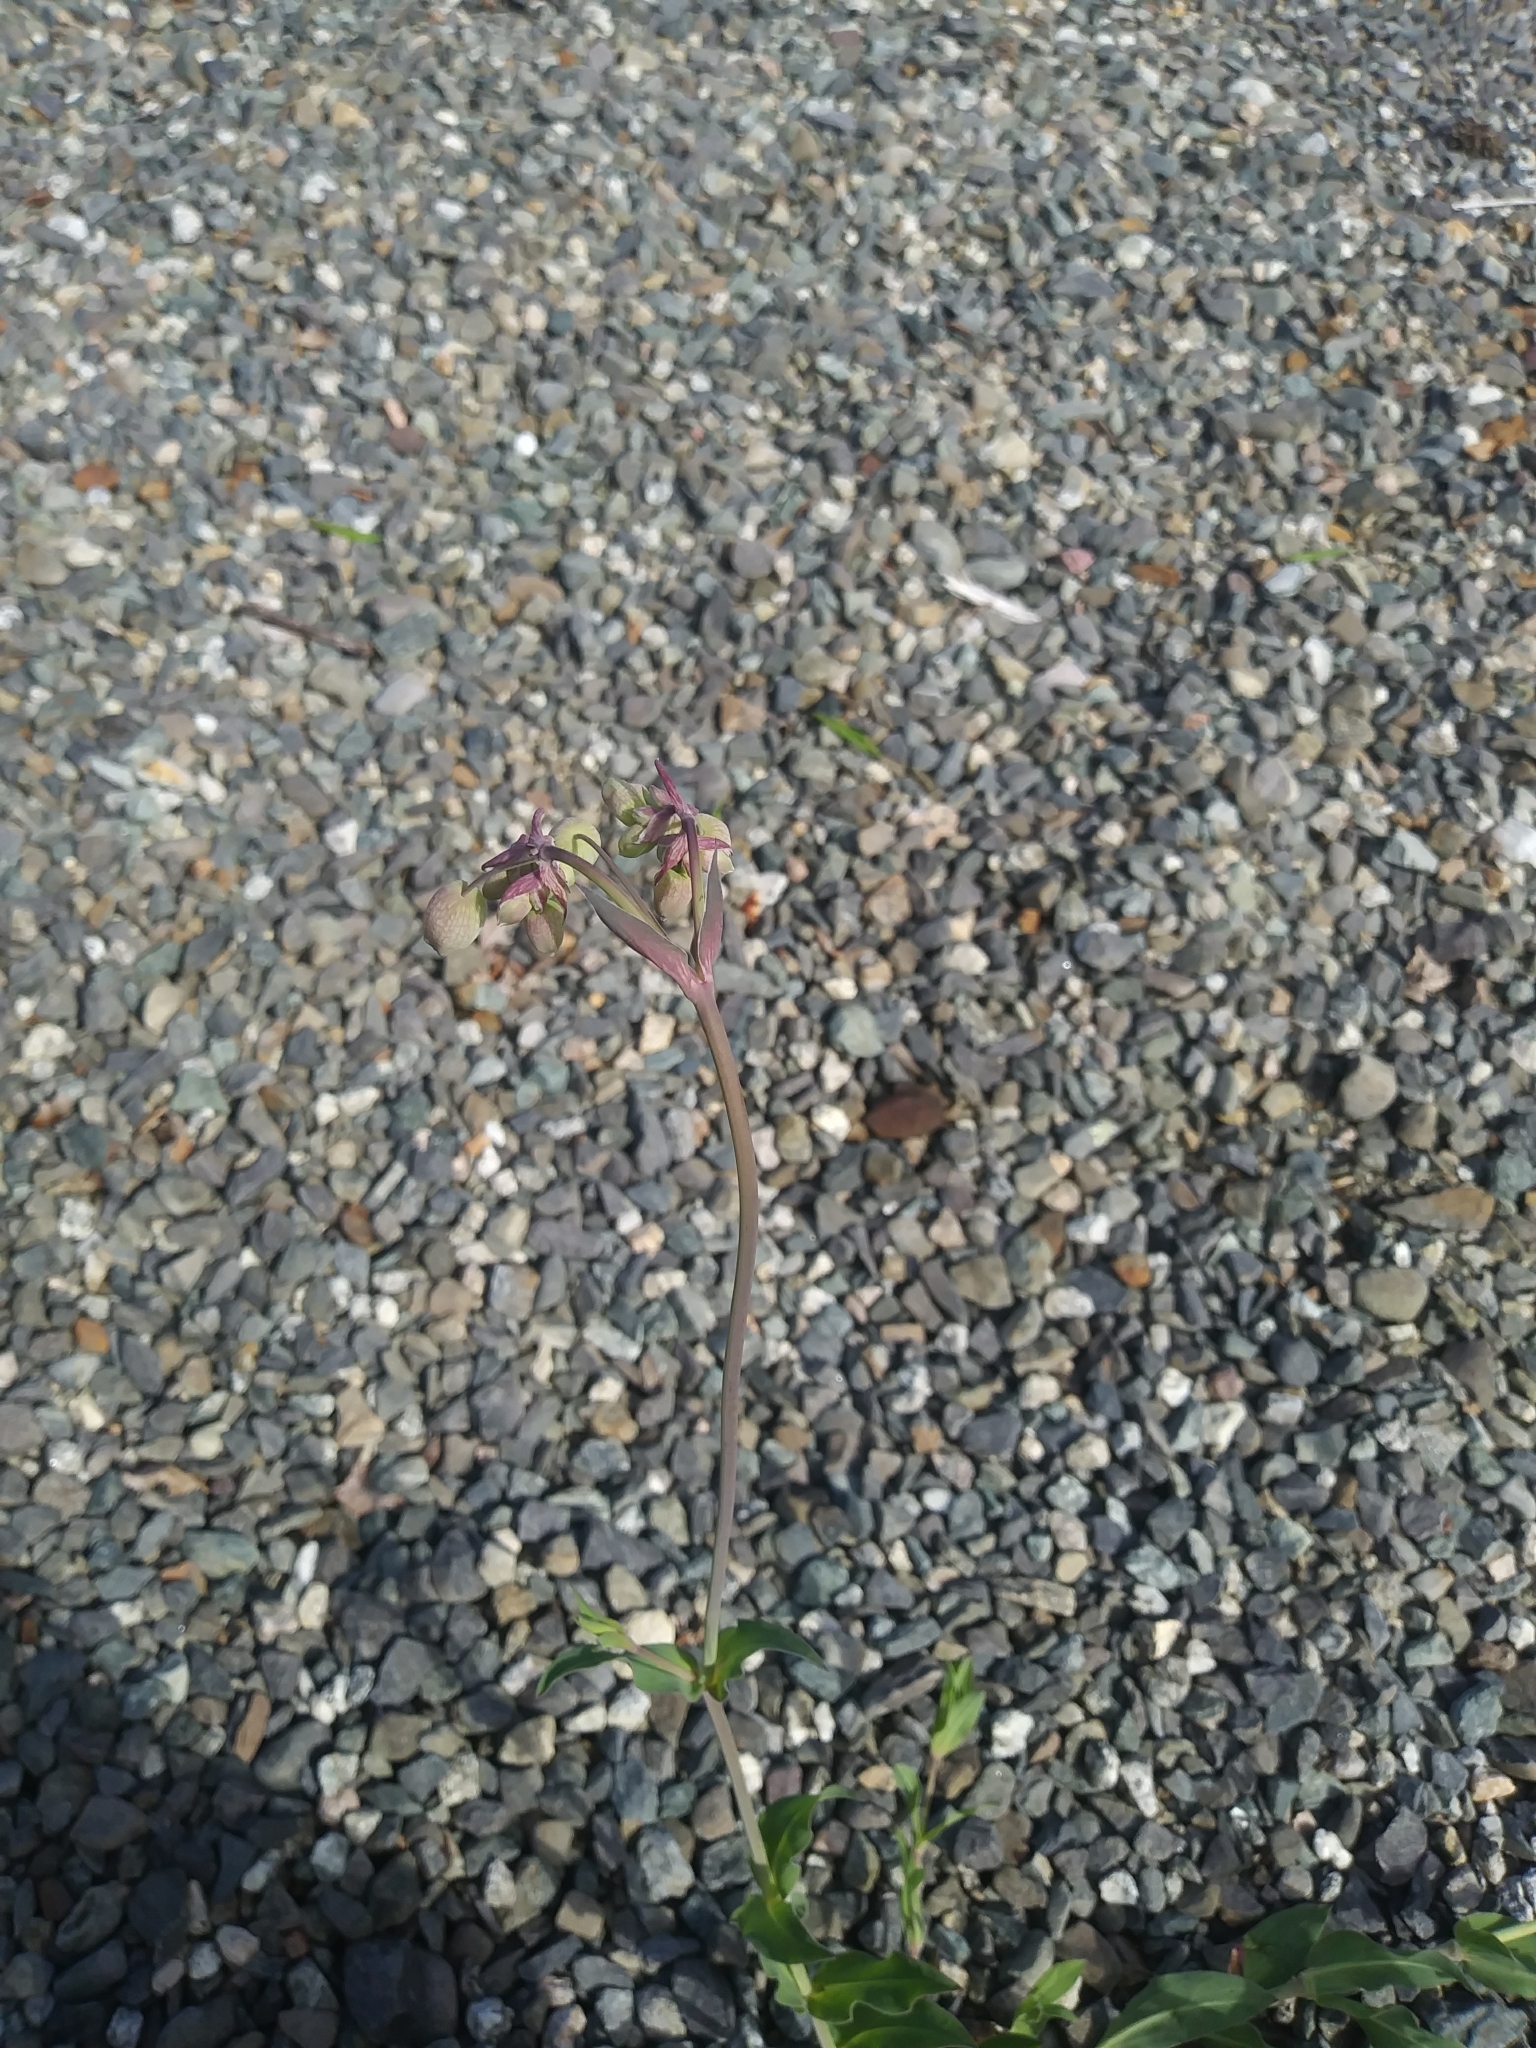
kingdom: Plantae
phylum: Tracheophyta
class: Magnoliopsida
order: Caryophyllales
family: Caryophyllaceae
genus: Silene
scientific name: Silene vulgaris
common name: Bladder campion
